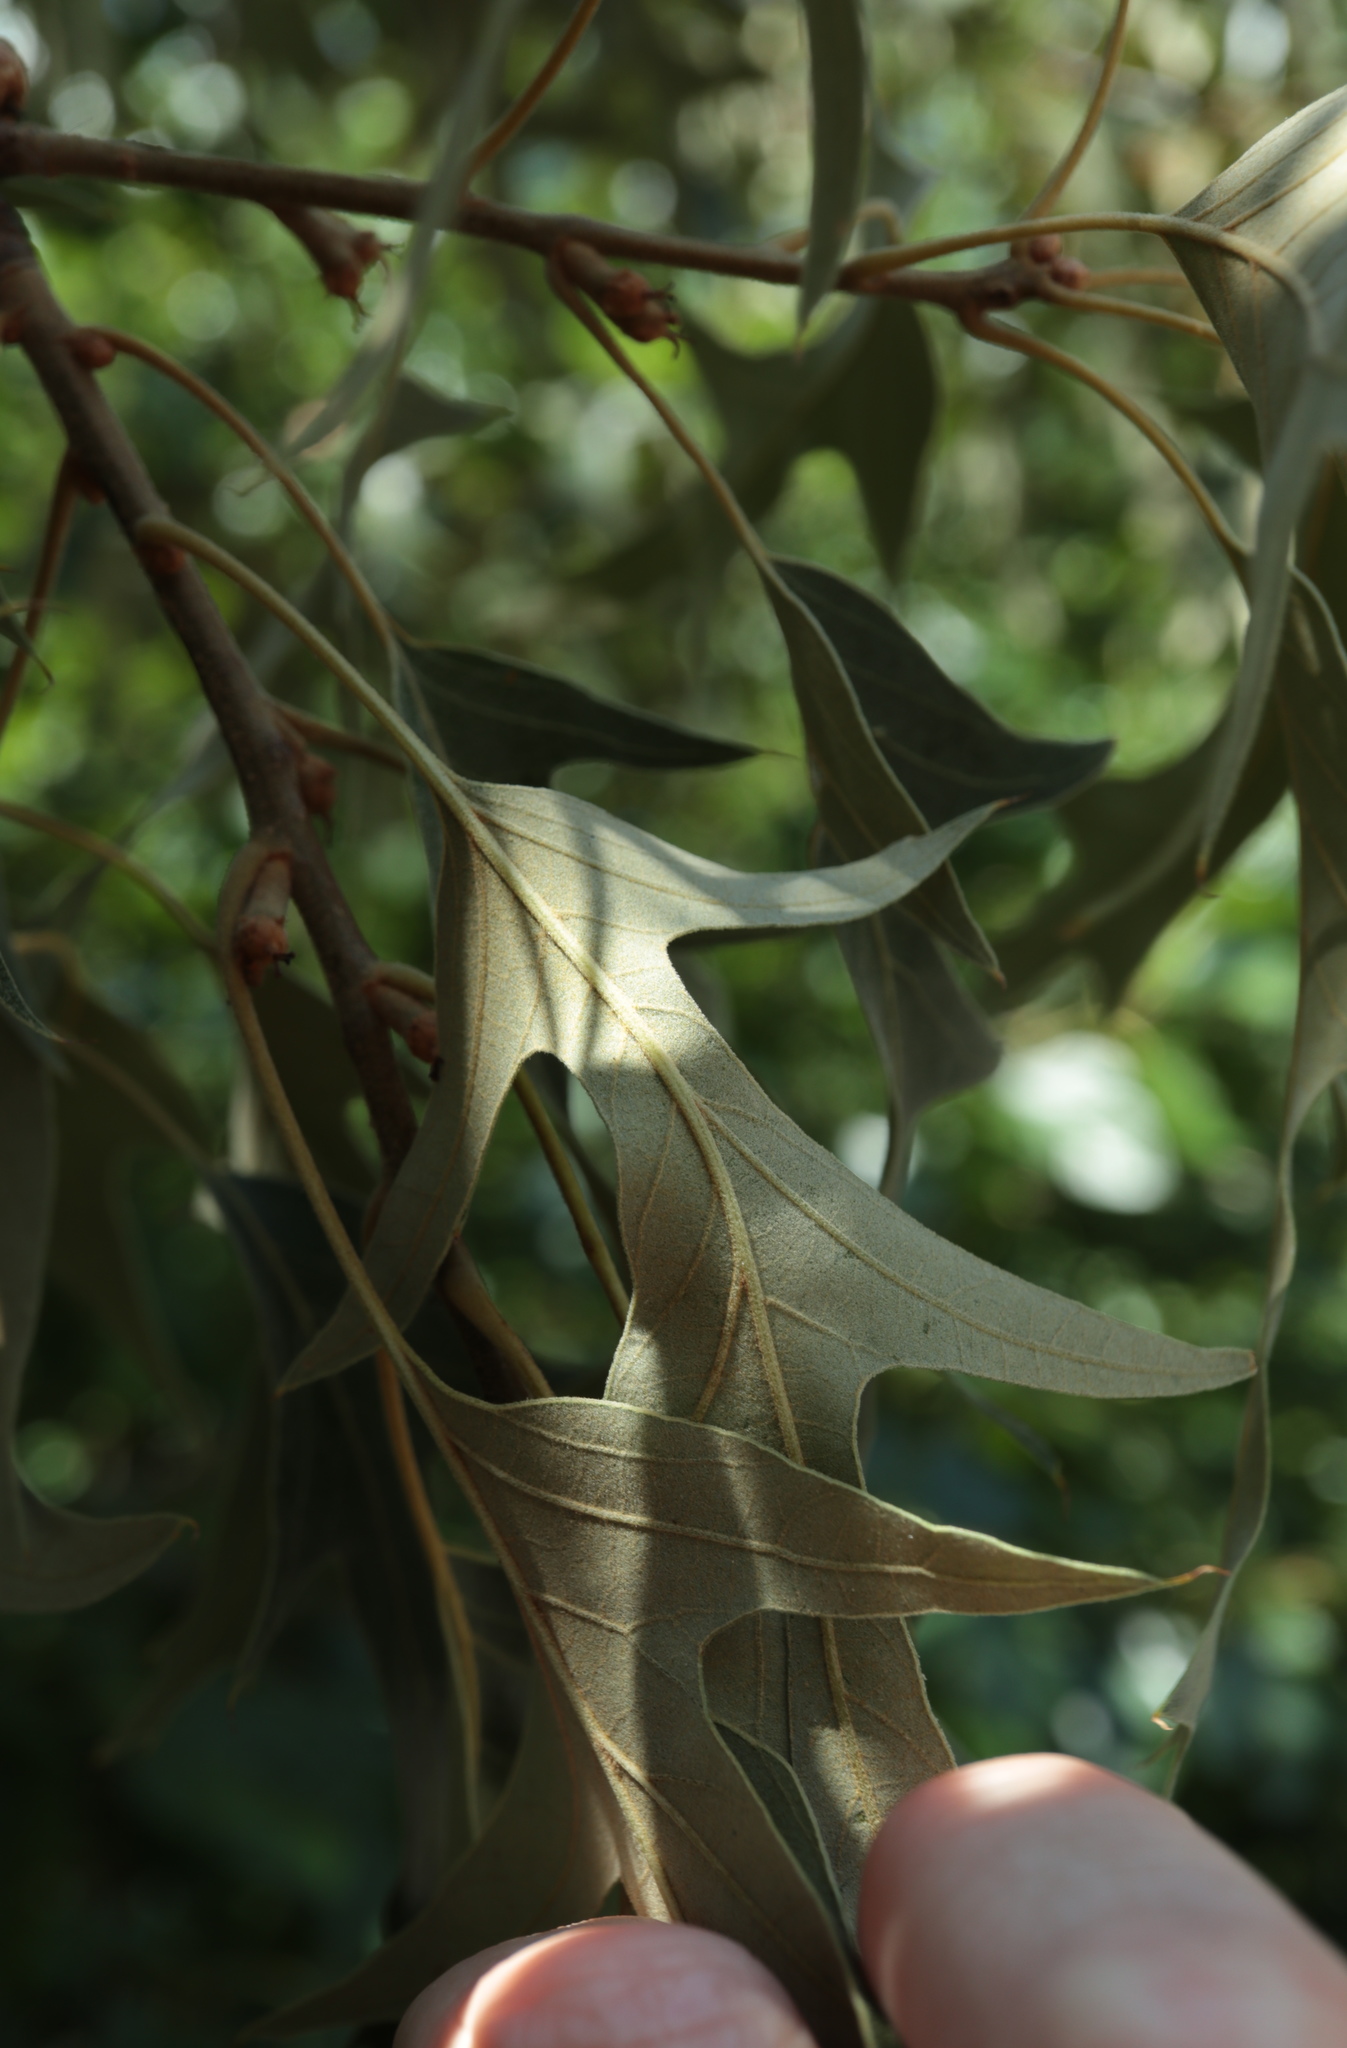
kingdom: Plantae
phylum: Tracheophyta
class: Magnoliopsida
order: Fagales
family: Fagaceae
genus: Quercus
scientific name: Quercus falcata
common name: Southern red oak
